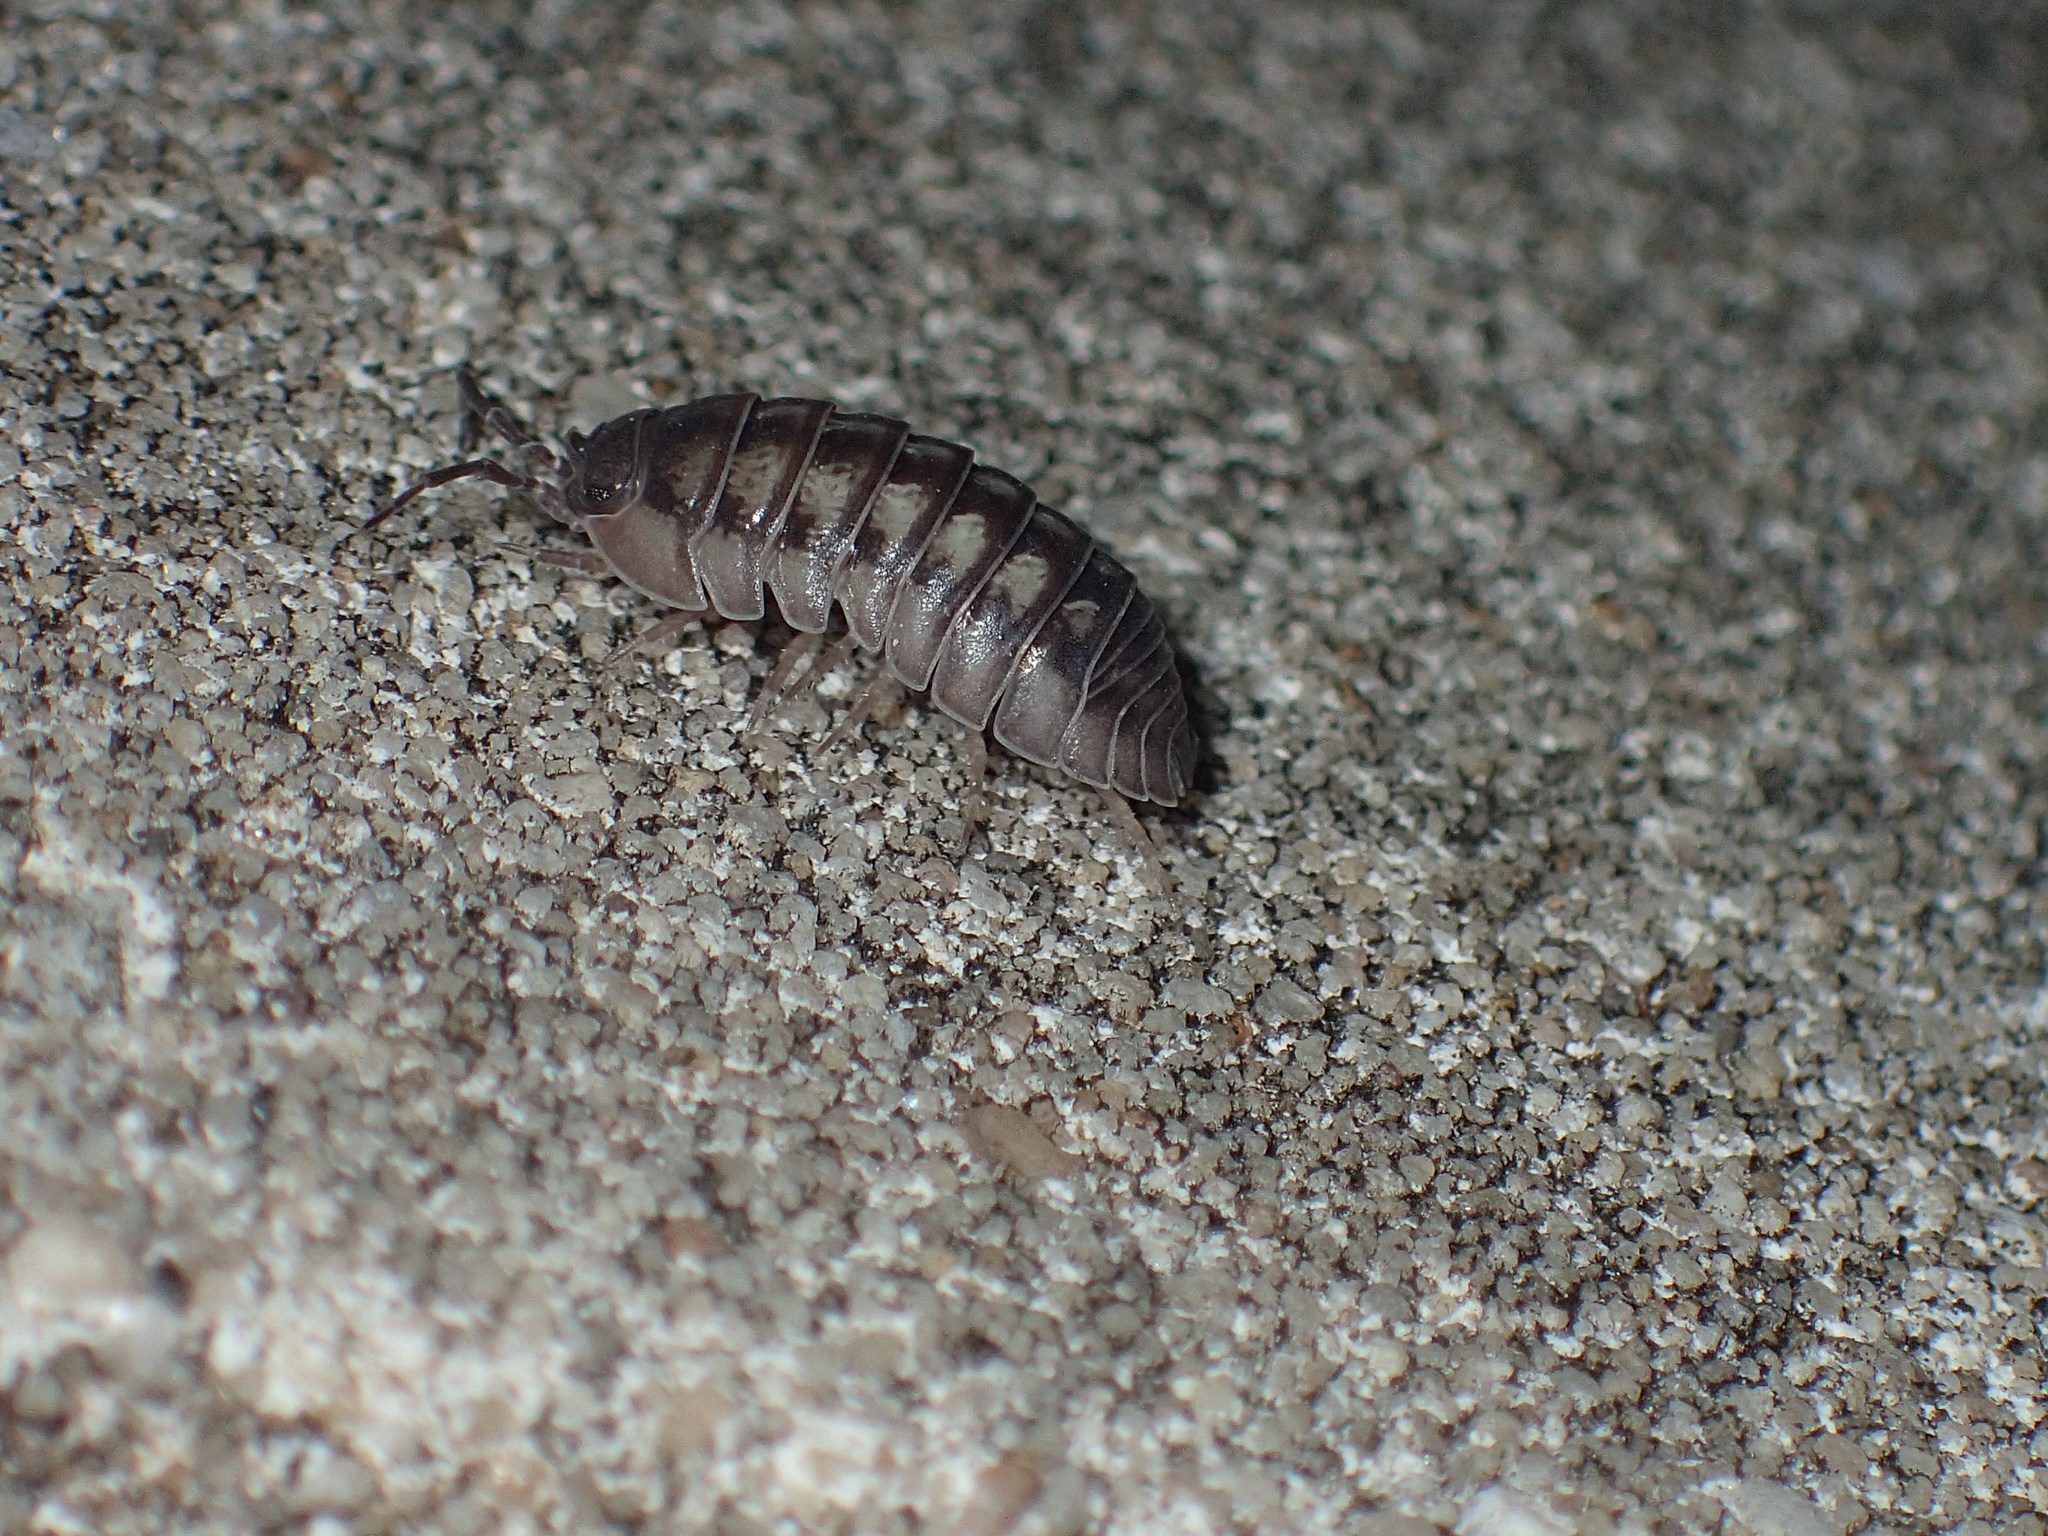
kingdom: Animalia
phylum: Arthropoda
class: Malacostraca
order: Isopoda
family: Armadillidiidae
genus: Armadillidium
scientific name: Armadillidium nasatum
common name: Isopod
